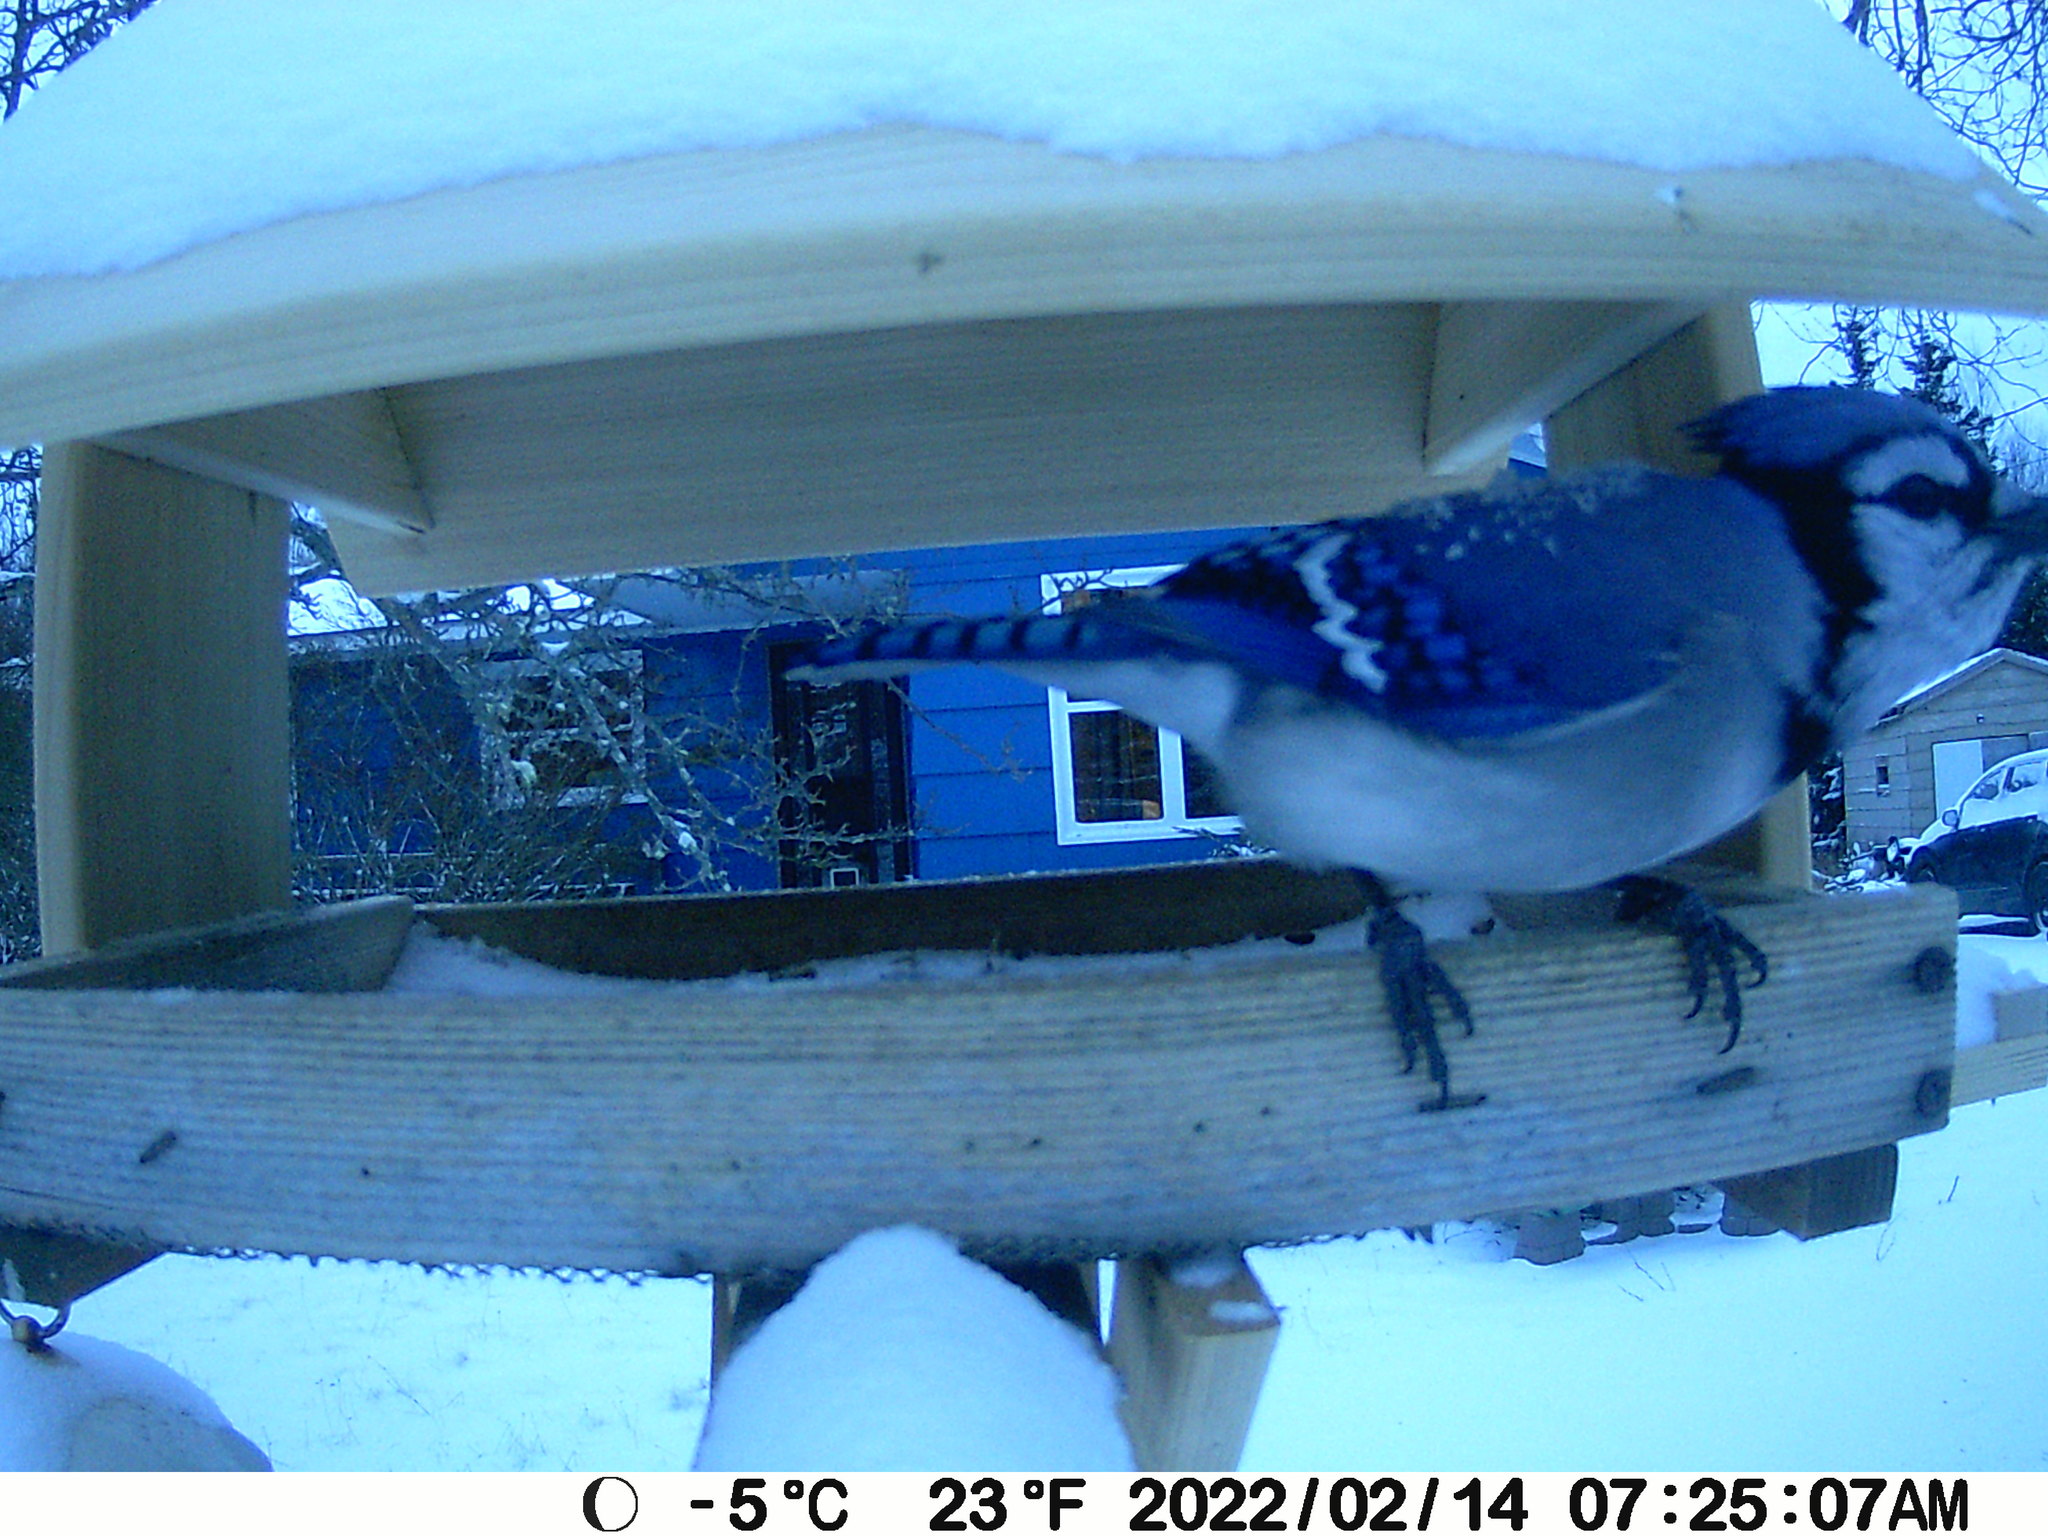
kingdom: Animalia
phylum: Chordata
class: Aves
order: Passeriformes
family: Corvidae
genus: Cyanocitta
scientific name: Cyanocitta cristata
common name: Blue jay
